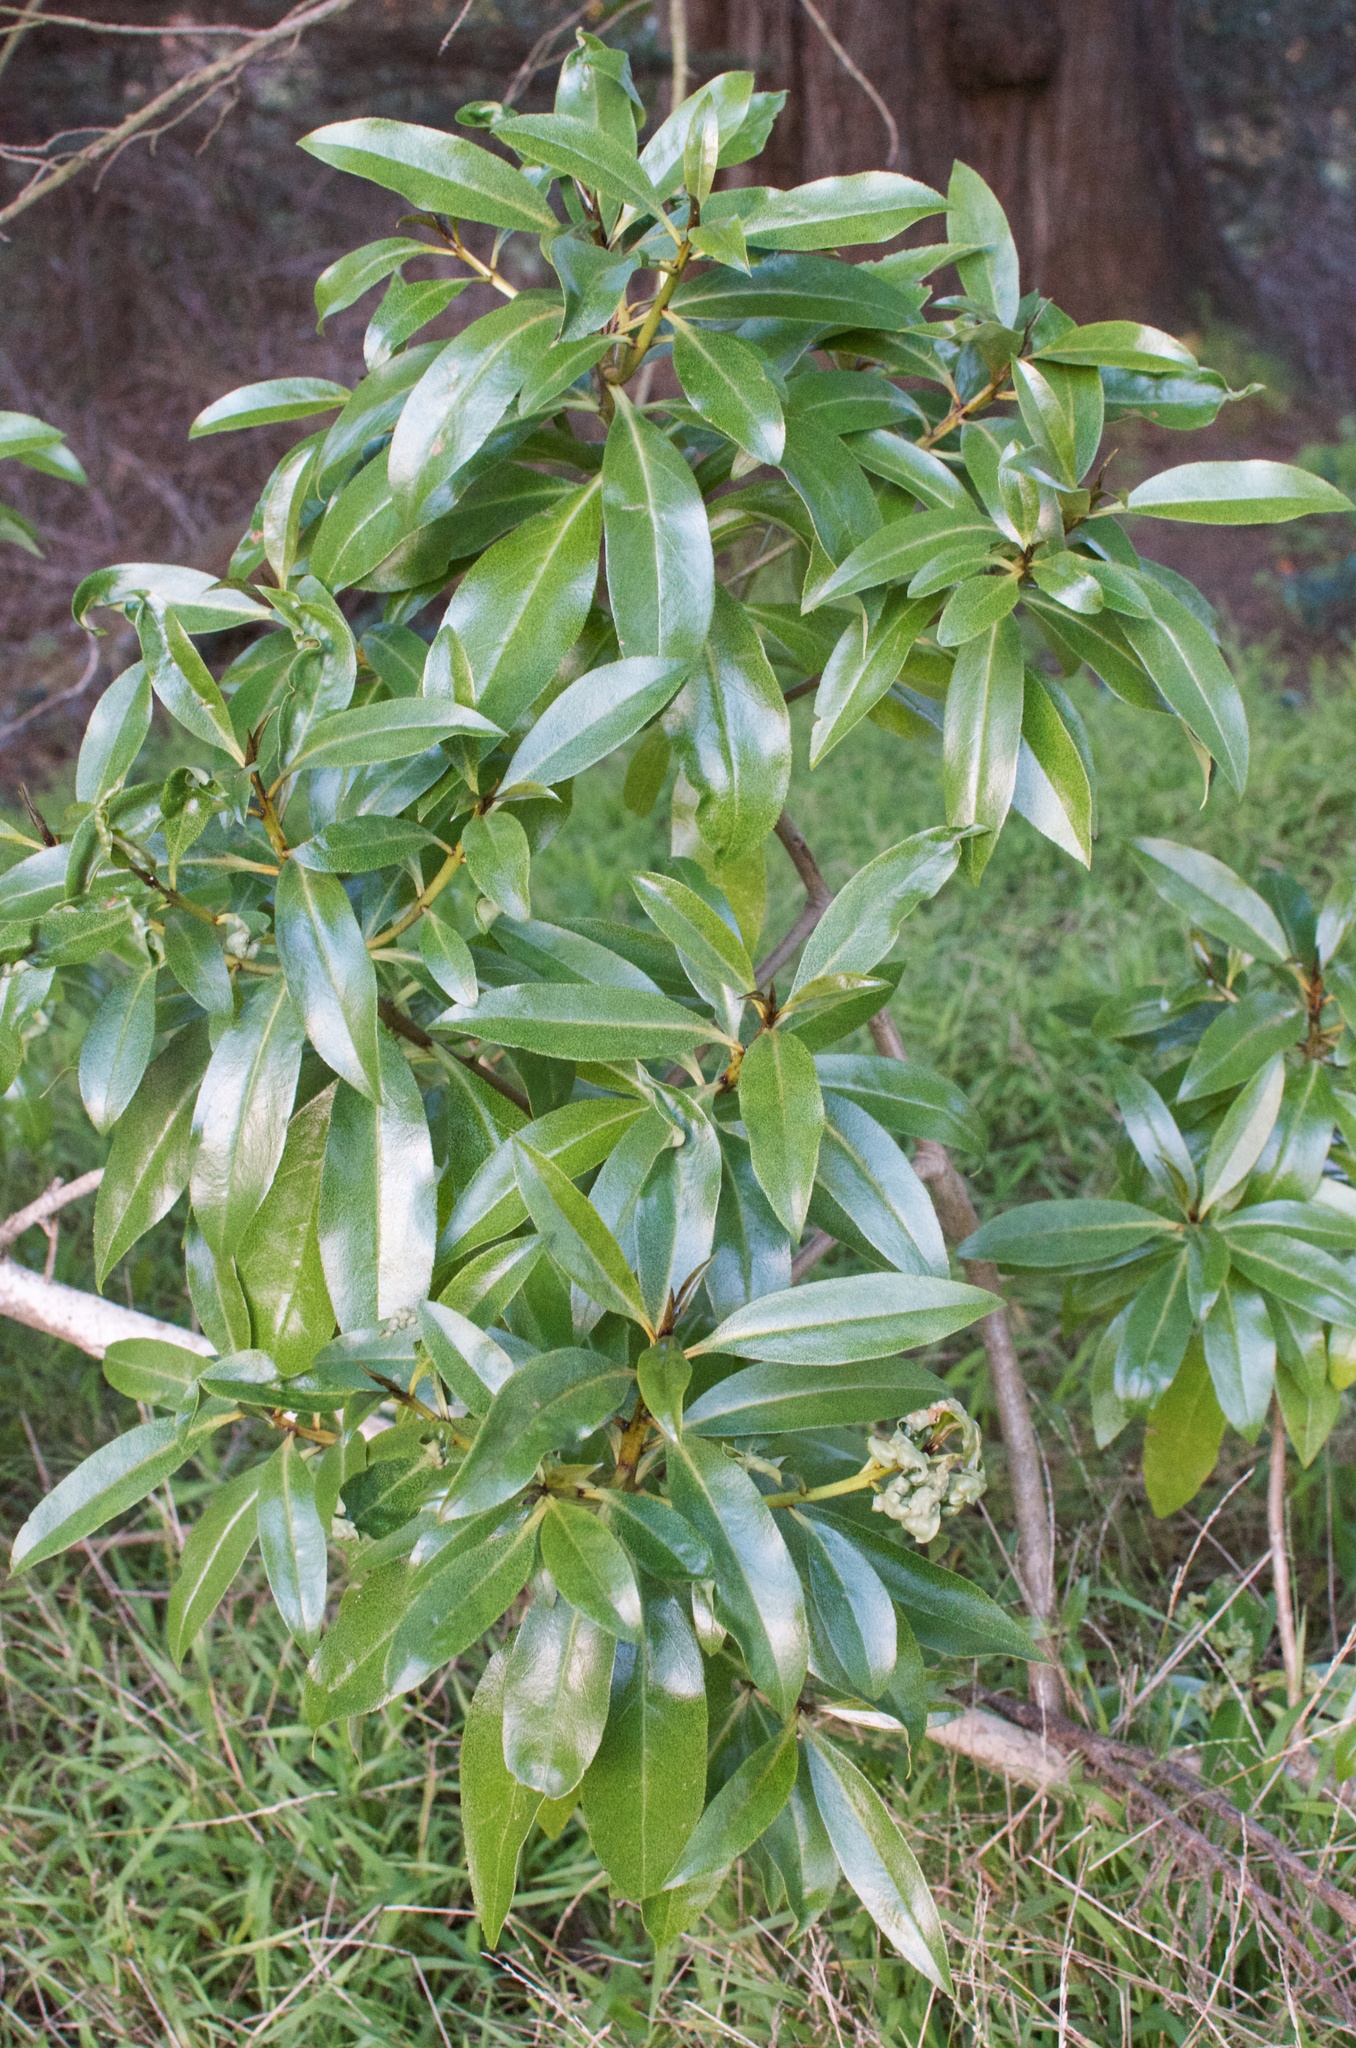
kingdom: Animalia
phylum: Arthropoda
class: Insecta
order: Thysanoptera
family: Phlaeothripidae
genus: Klambothrips
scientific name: Klambothrips myopori
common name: Myoporum thrips
